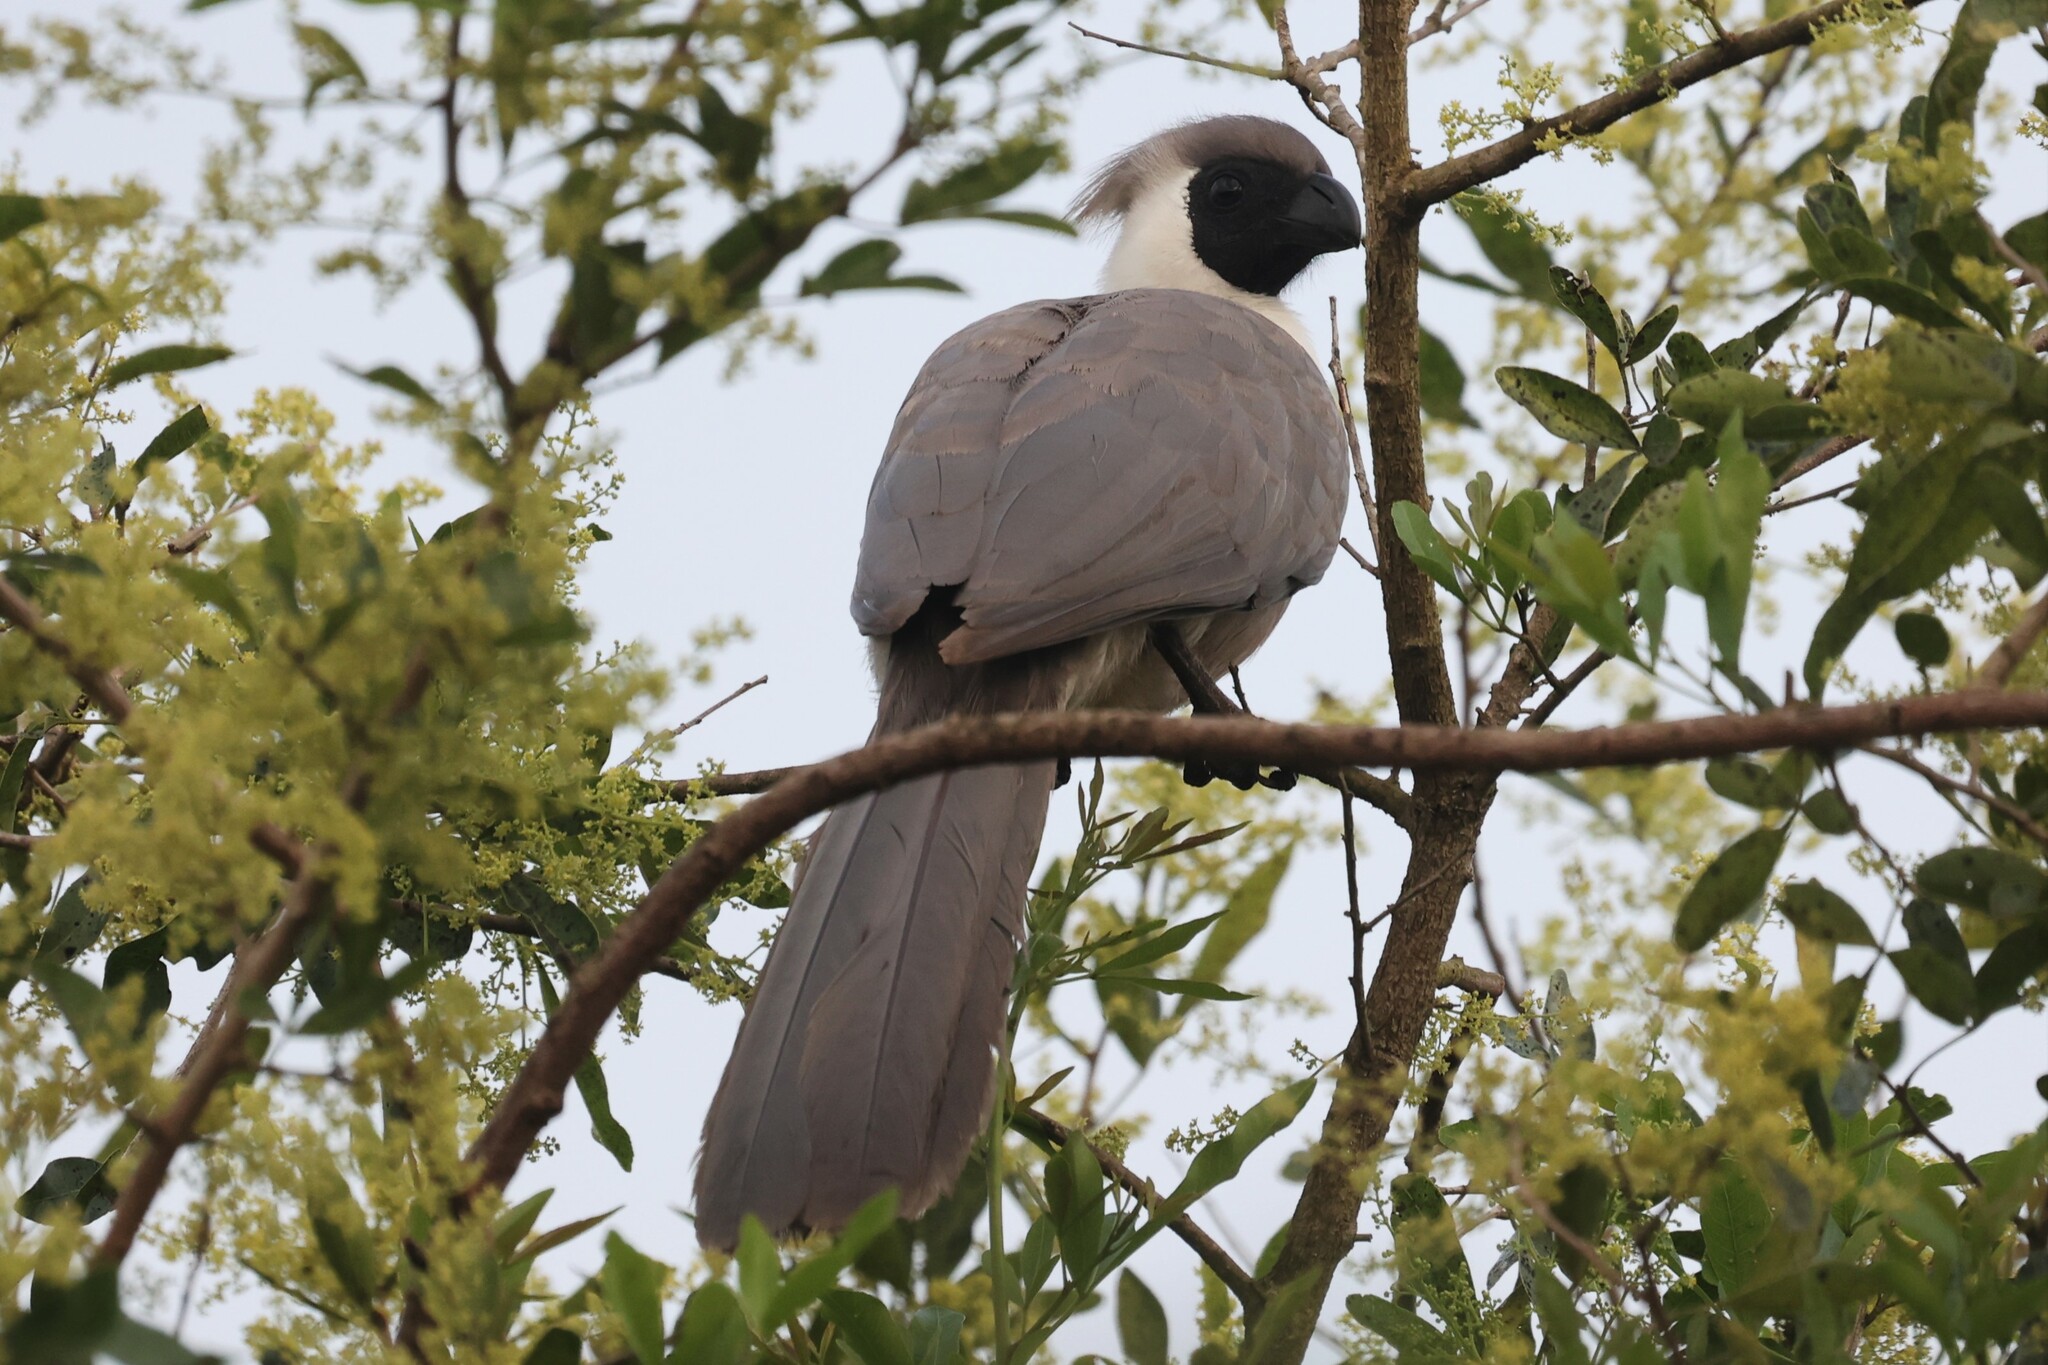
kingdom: Animalia
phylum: Chordata
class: Aves
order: Musophagiformes
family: Musophagidae
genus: Corythaixoides
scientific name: Corythaixoides personatus
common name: Bare-faced go-away-bird
